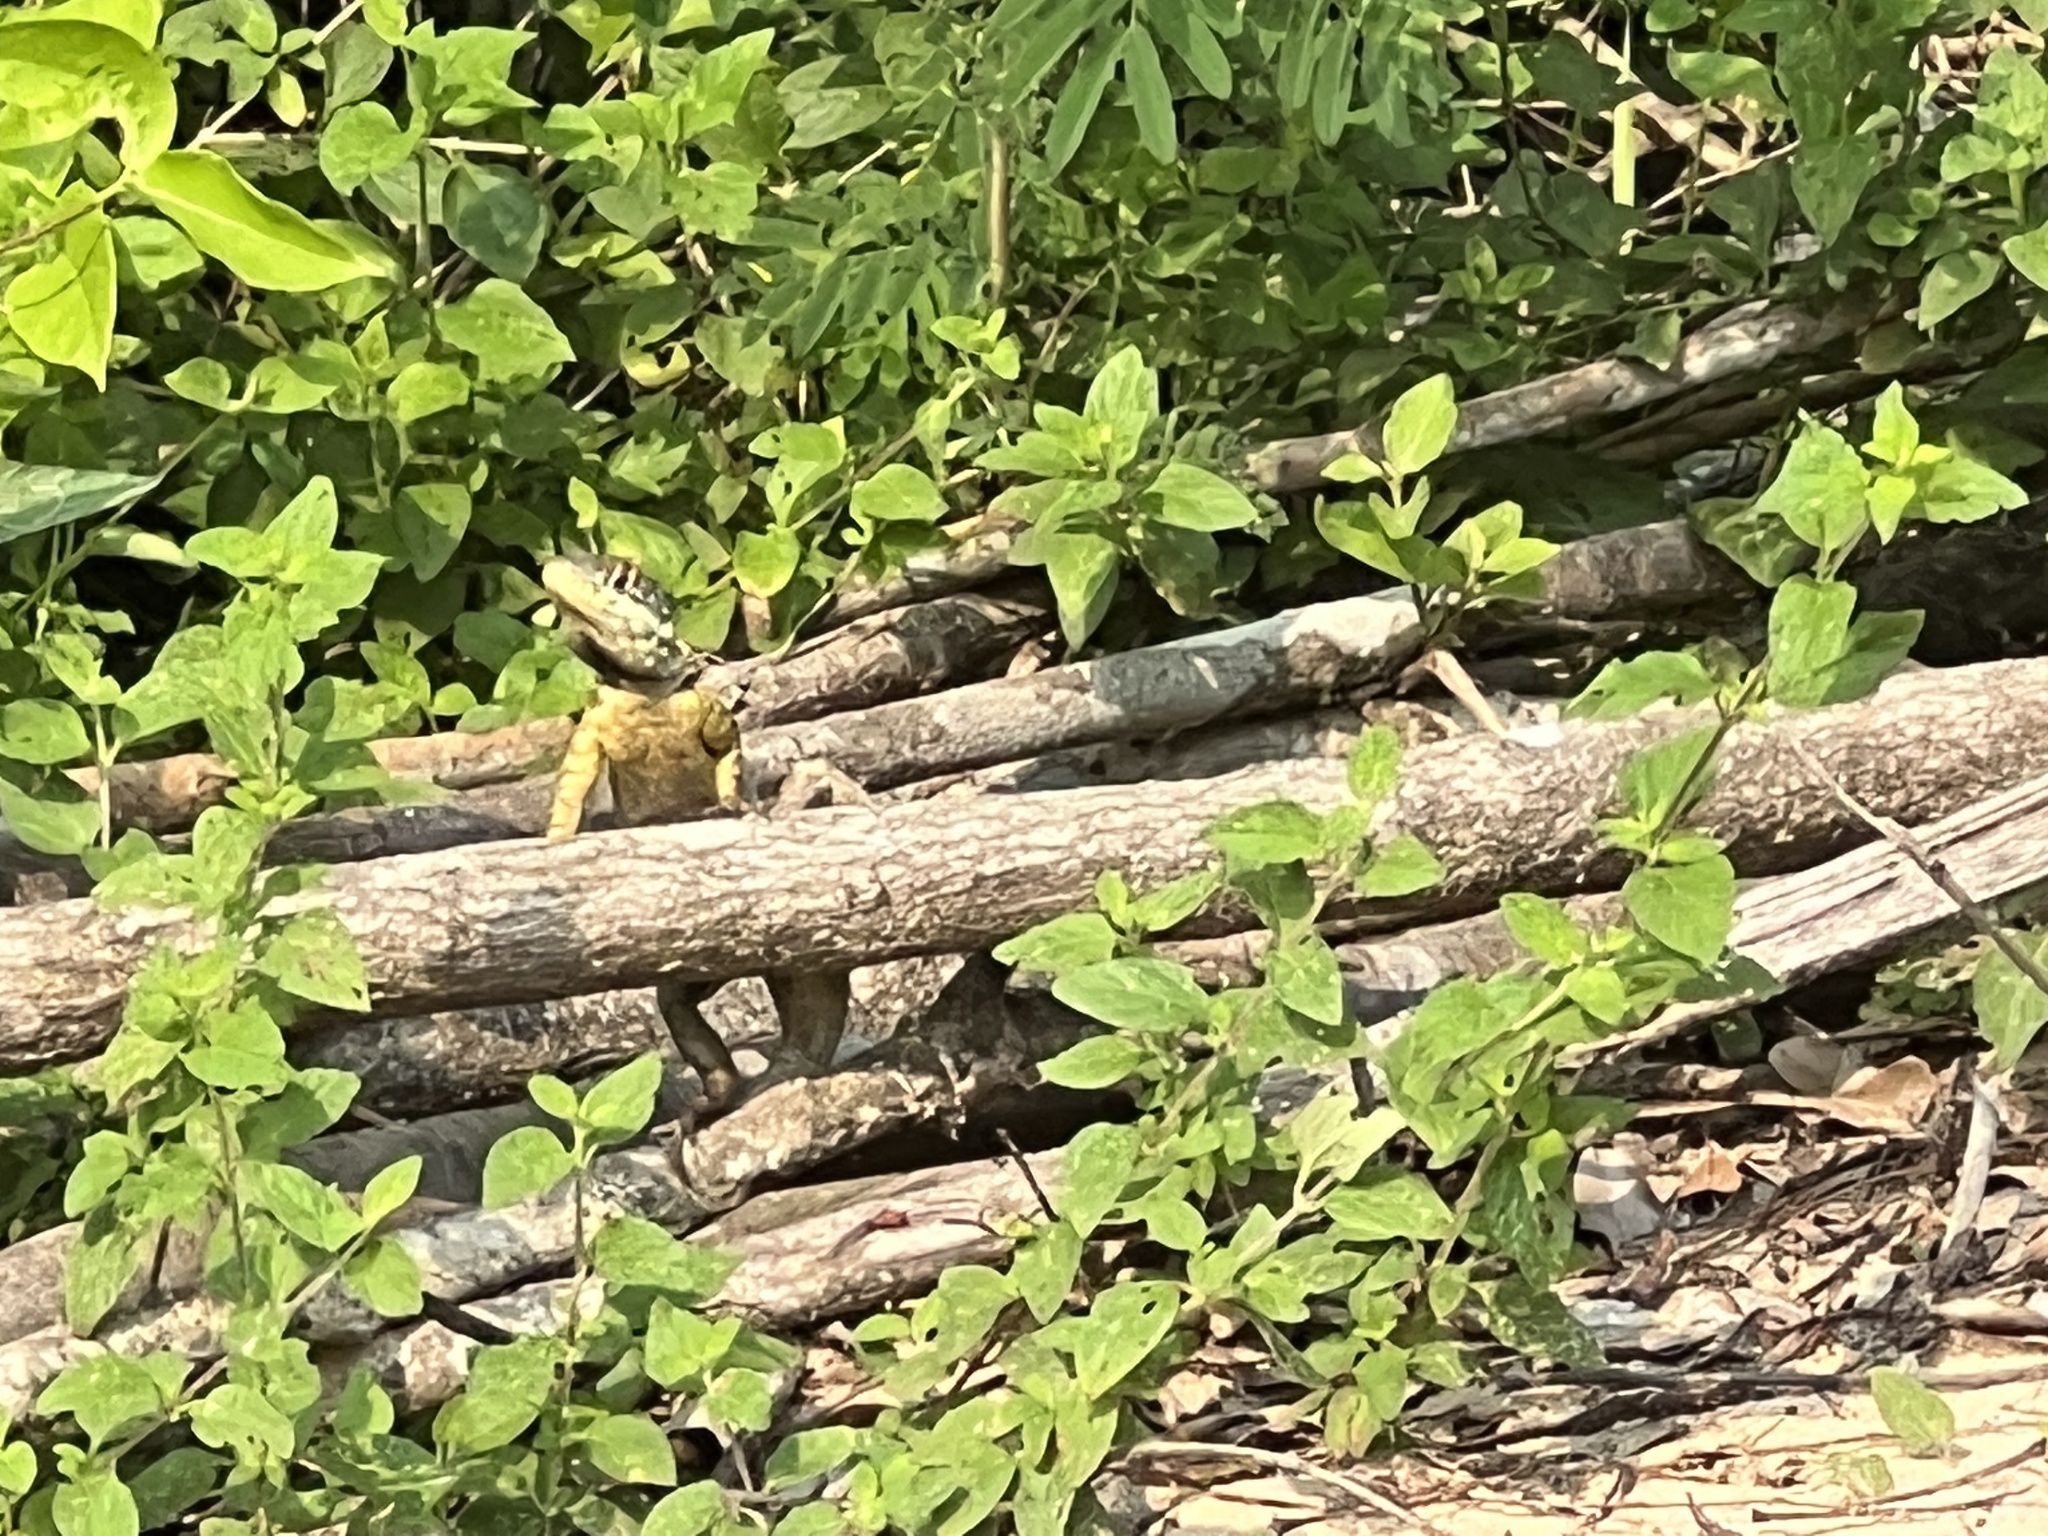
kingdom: Animalia
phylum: Chordata
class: Squamata
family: Tropiduridae
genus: Tropidurus
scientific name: Tropidurus catalanensis
